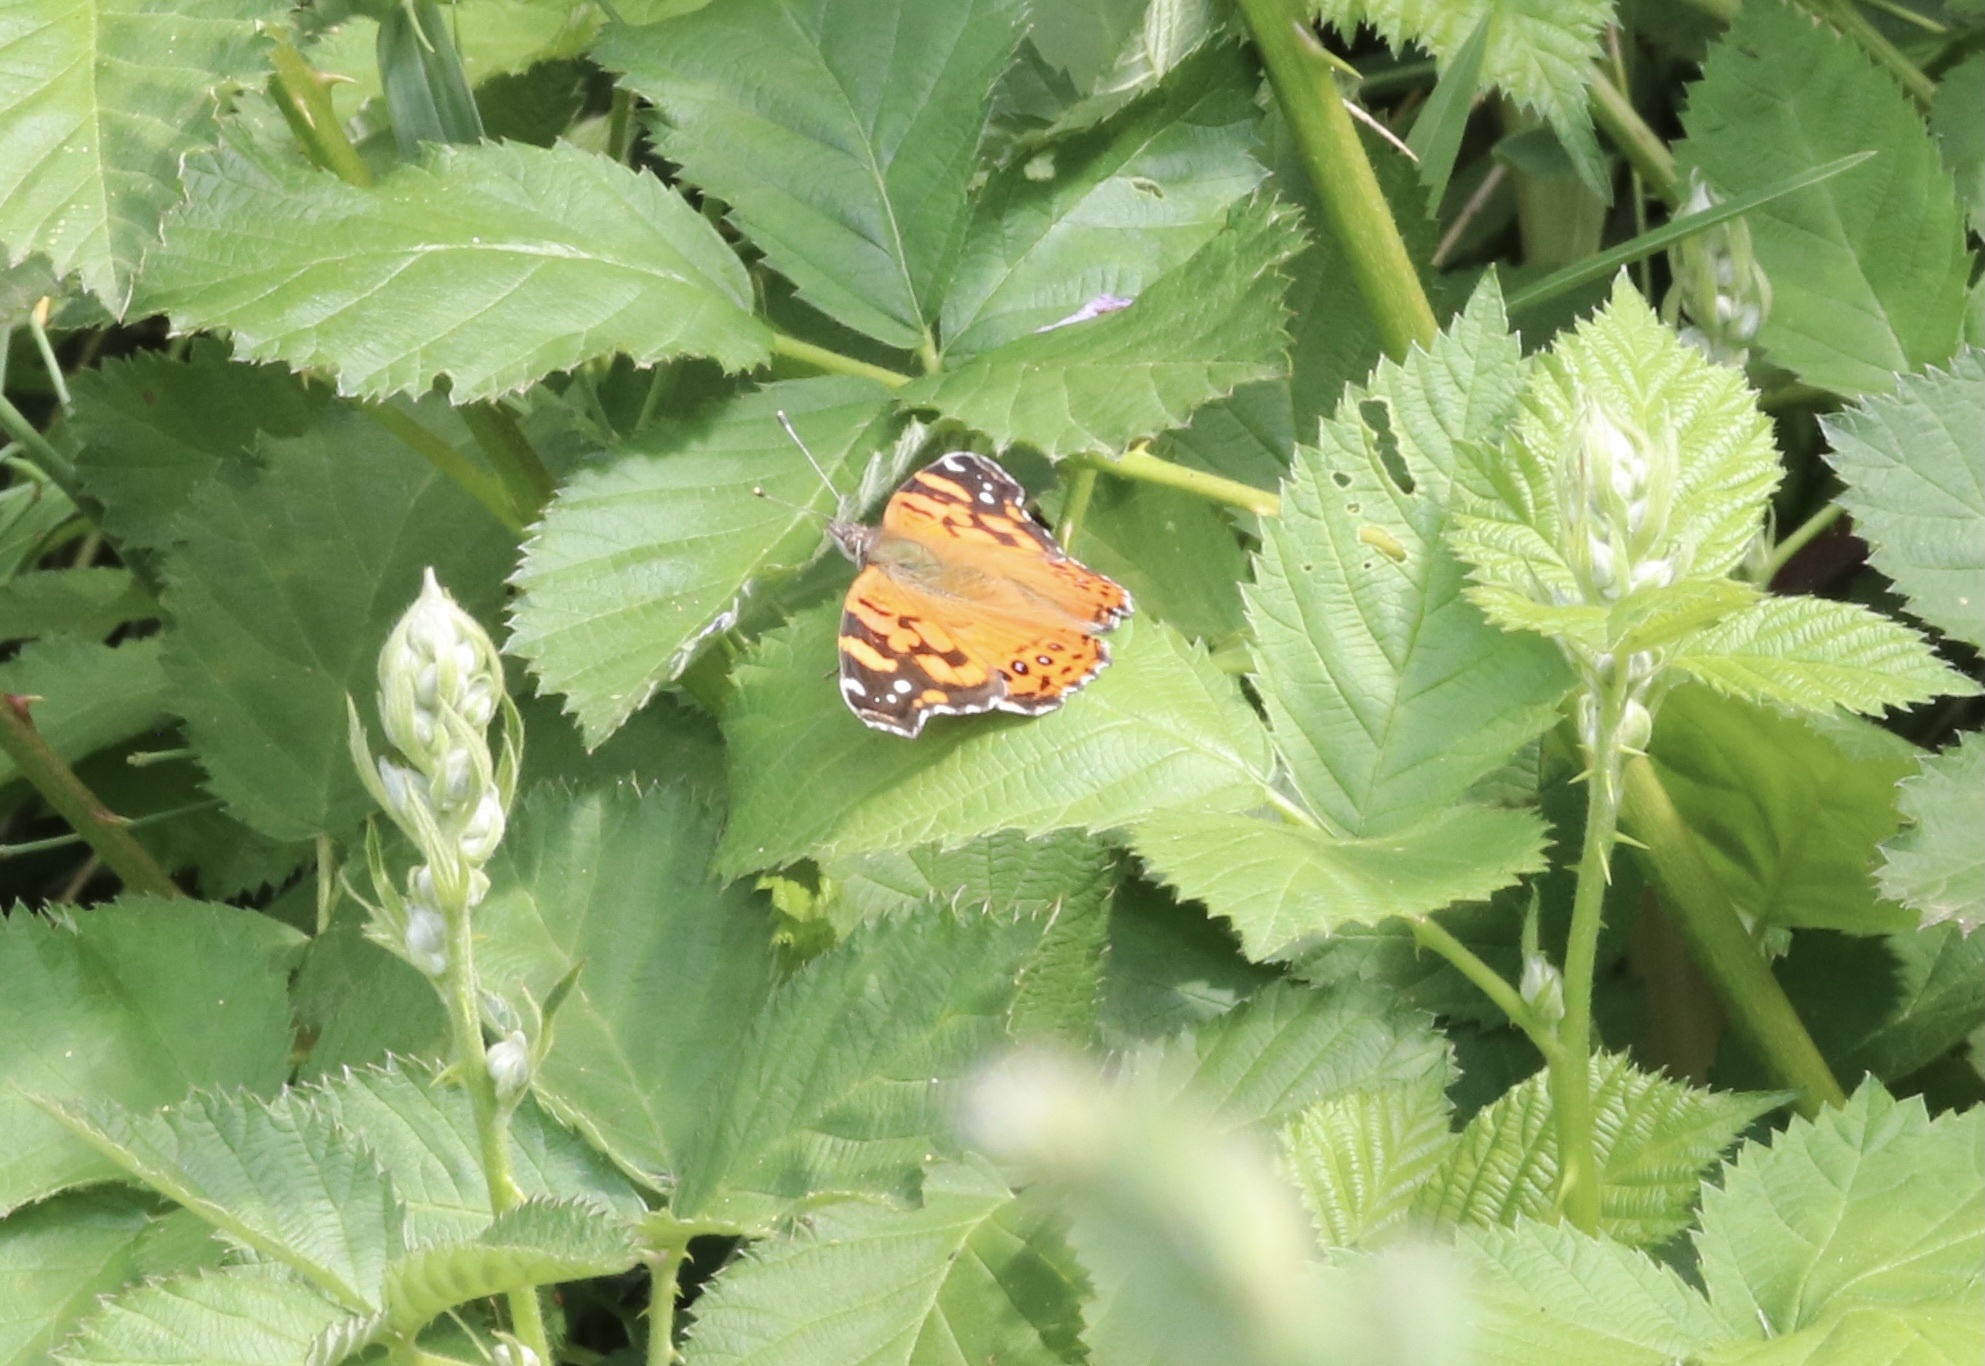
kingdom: Animalia
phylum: Arthropoda
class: Insecta
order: Lepidoptera
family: Nymphalidae
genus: Vanessa
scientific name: Vanessa carye
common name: Subtropical lady
